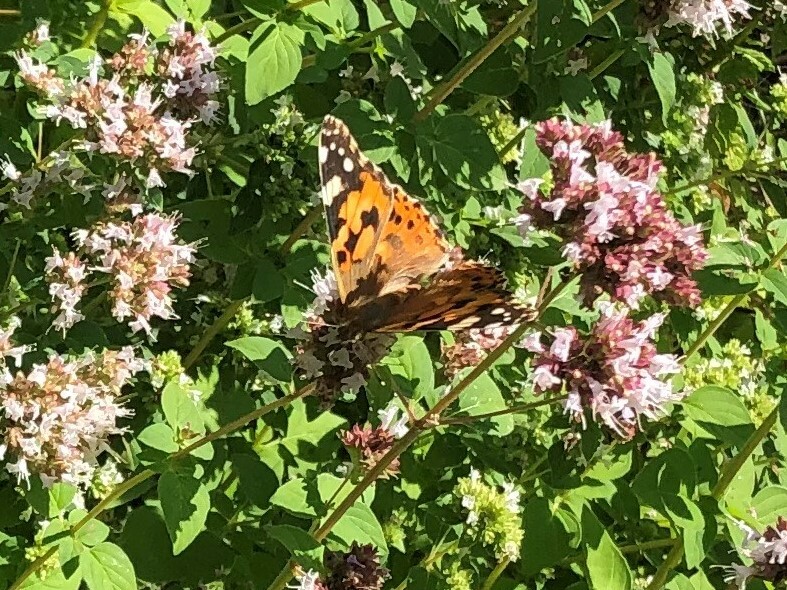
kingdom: Animalia
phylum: Arthropoda
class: Insecta
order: Lepidoptera
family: Nymphalidae
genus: Vanessa
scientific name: Vanessa cardui
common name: Painted lady
